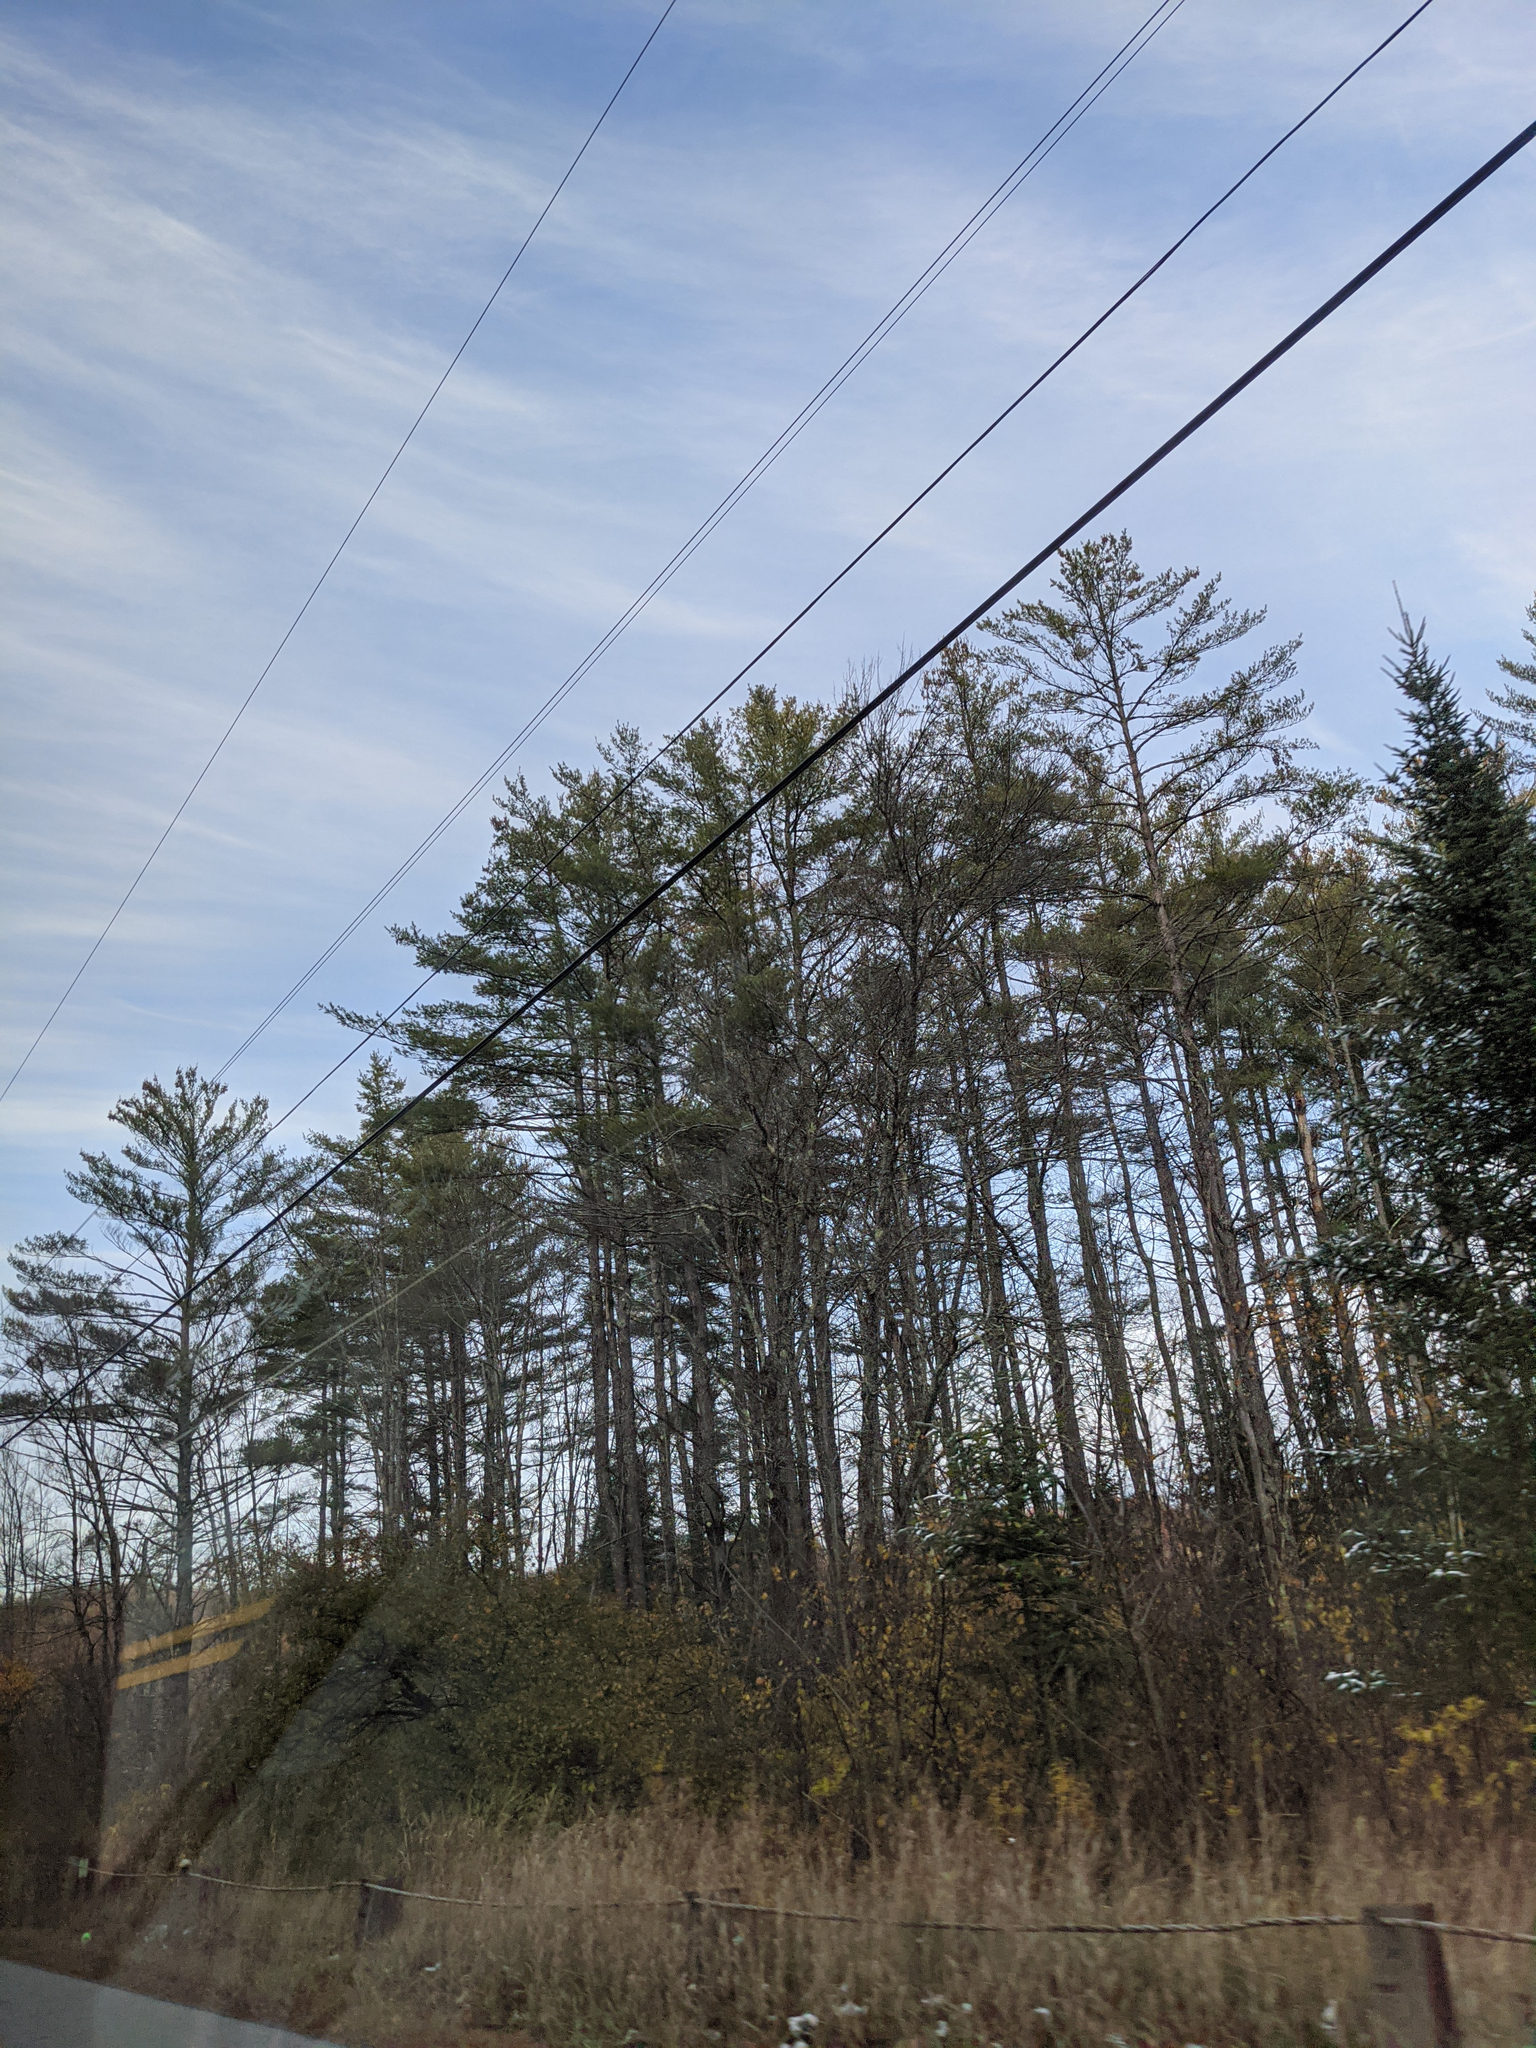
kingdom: Plantae
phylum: Tracheophyta
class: Pinopsida
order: Pinales
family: Pinaceae
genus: Pinus
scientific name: Pinus strobus
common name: Weymouth pine
